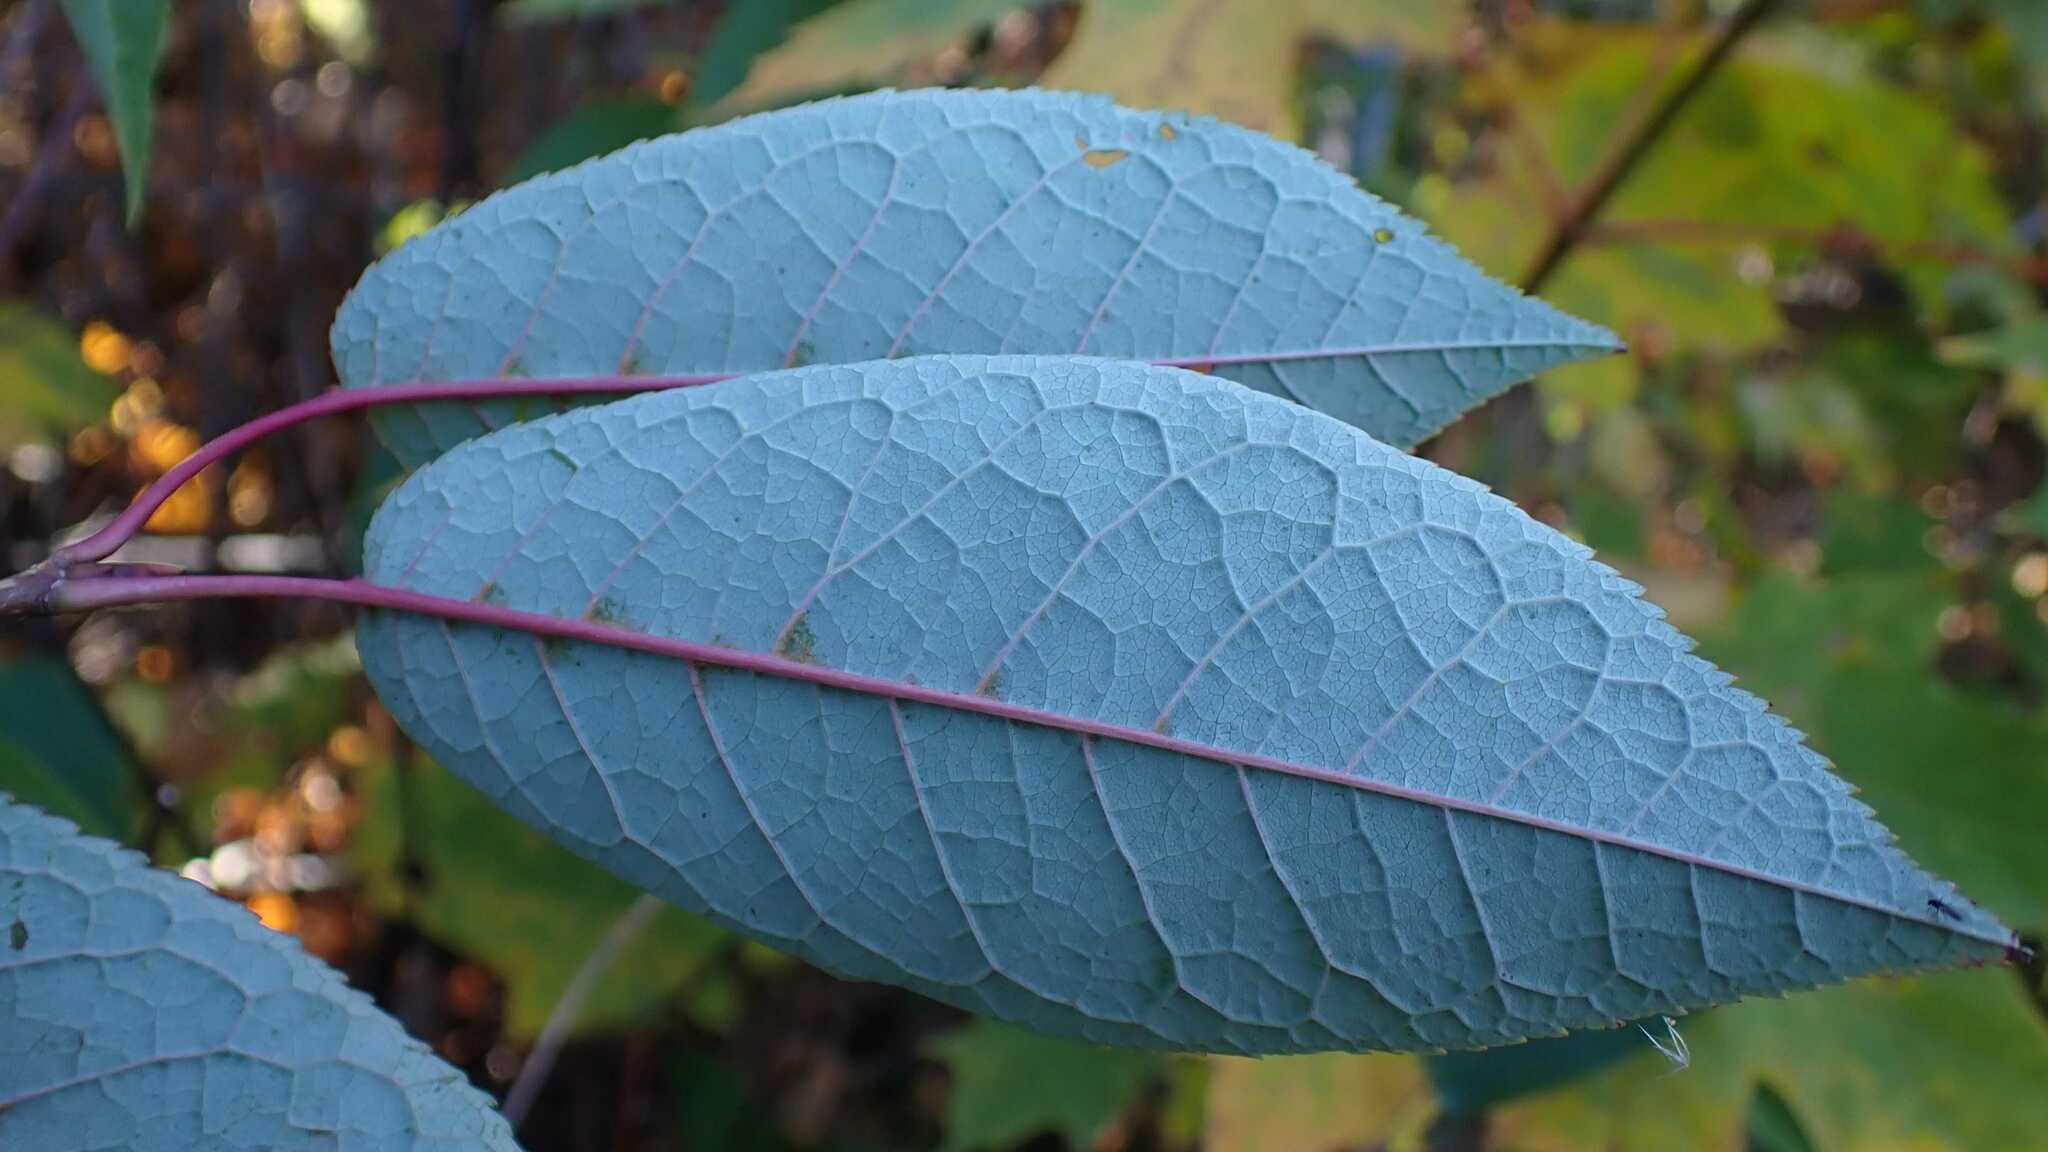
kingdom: Plantae
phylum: Tracheophyta
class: Magnoliopsida
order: Rosales
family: Rosaceae
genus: Prunus
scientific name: Prunus padus
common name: Bird cherry
